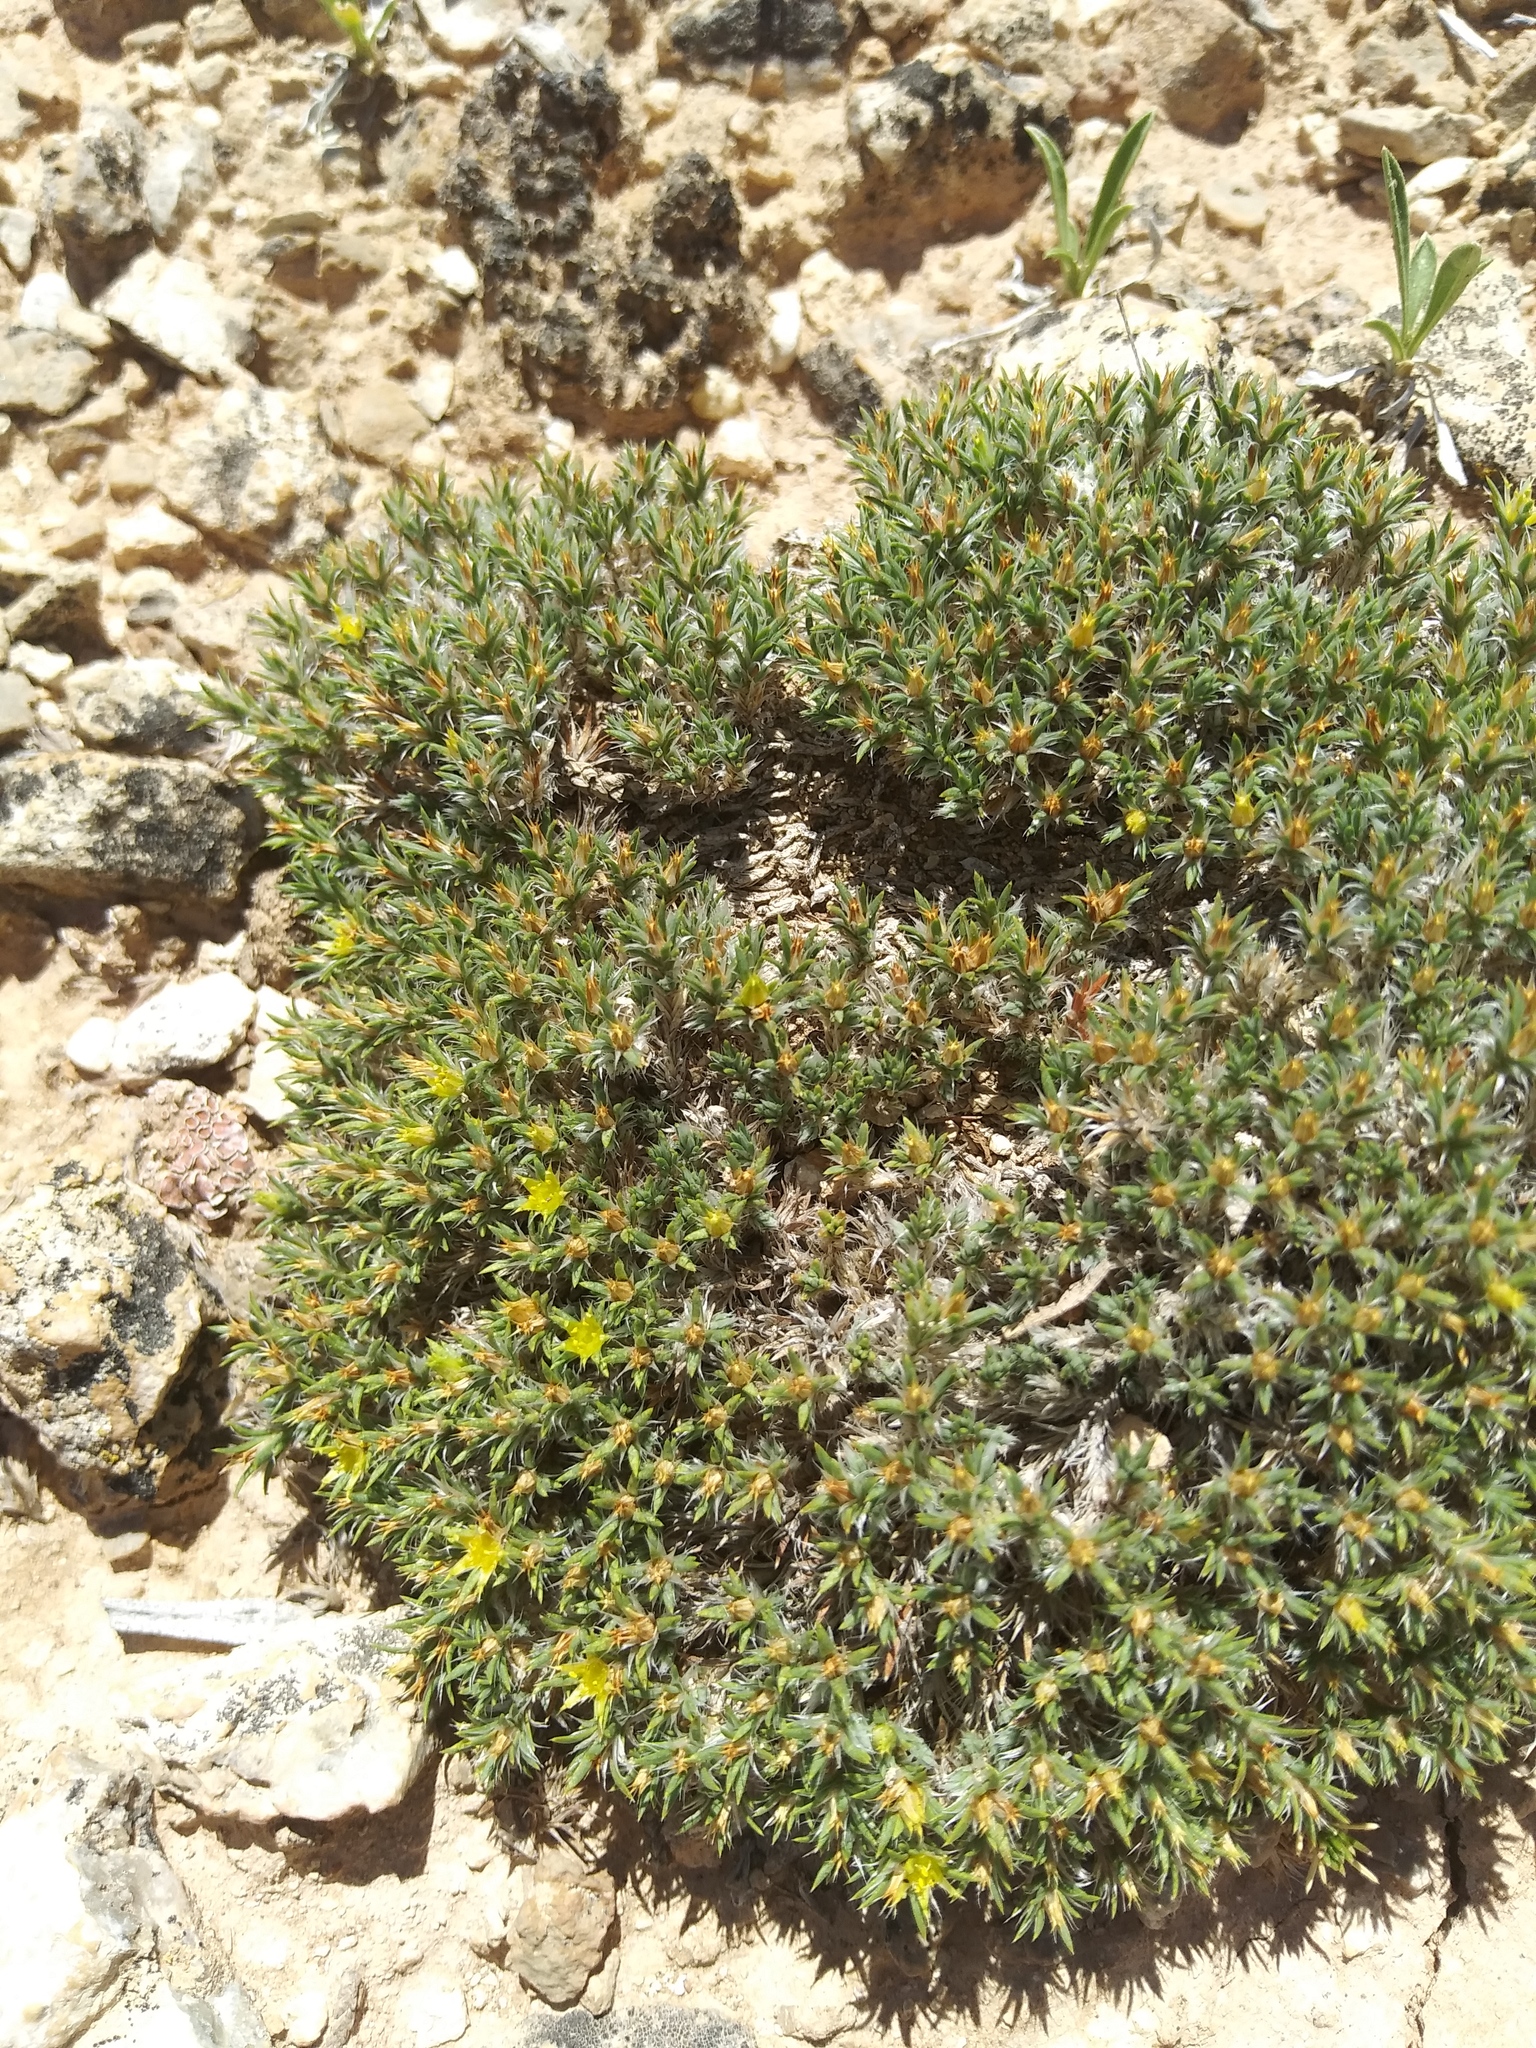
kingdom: Plantae
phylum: Tracheophyta
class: Magnoliopsida
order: Caryophyllales
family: Caryophyllaceae
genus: Paronychia
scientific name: Paronychia sessiliflora
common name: Creeping nailwort
